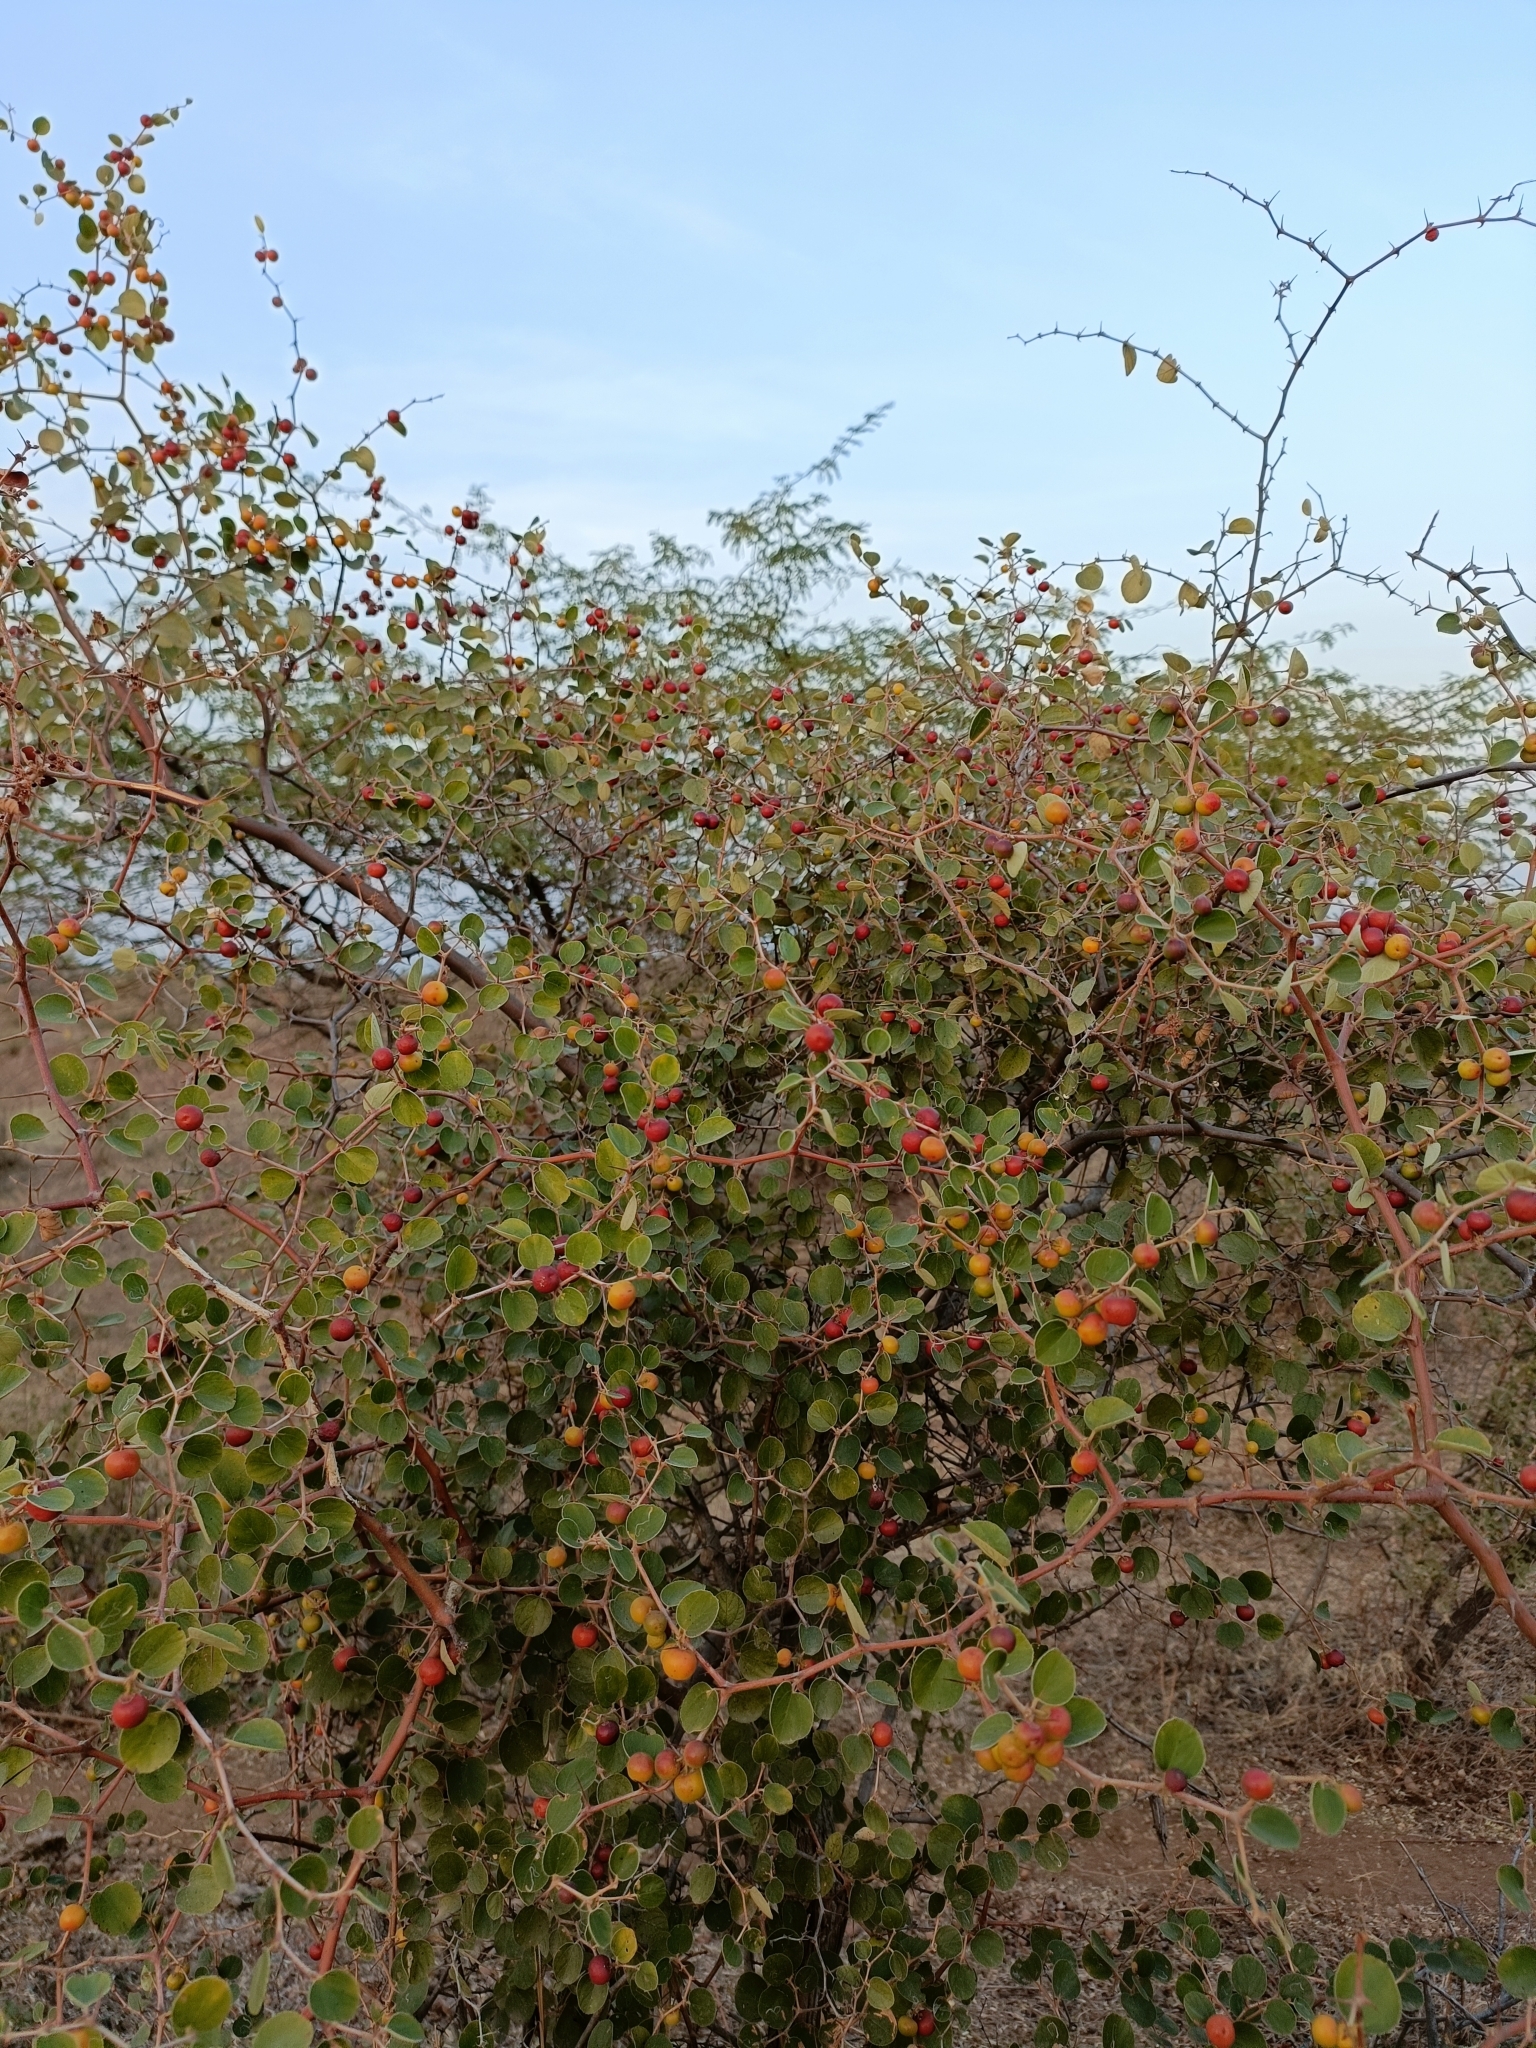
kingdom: Plantae
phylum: Tracheophyta
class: Magnoliopsida
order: Rosales
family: Rhamnaceae
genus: Ziziphus
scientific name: Ziziphus nummularia
